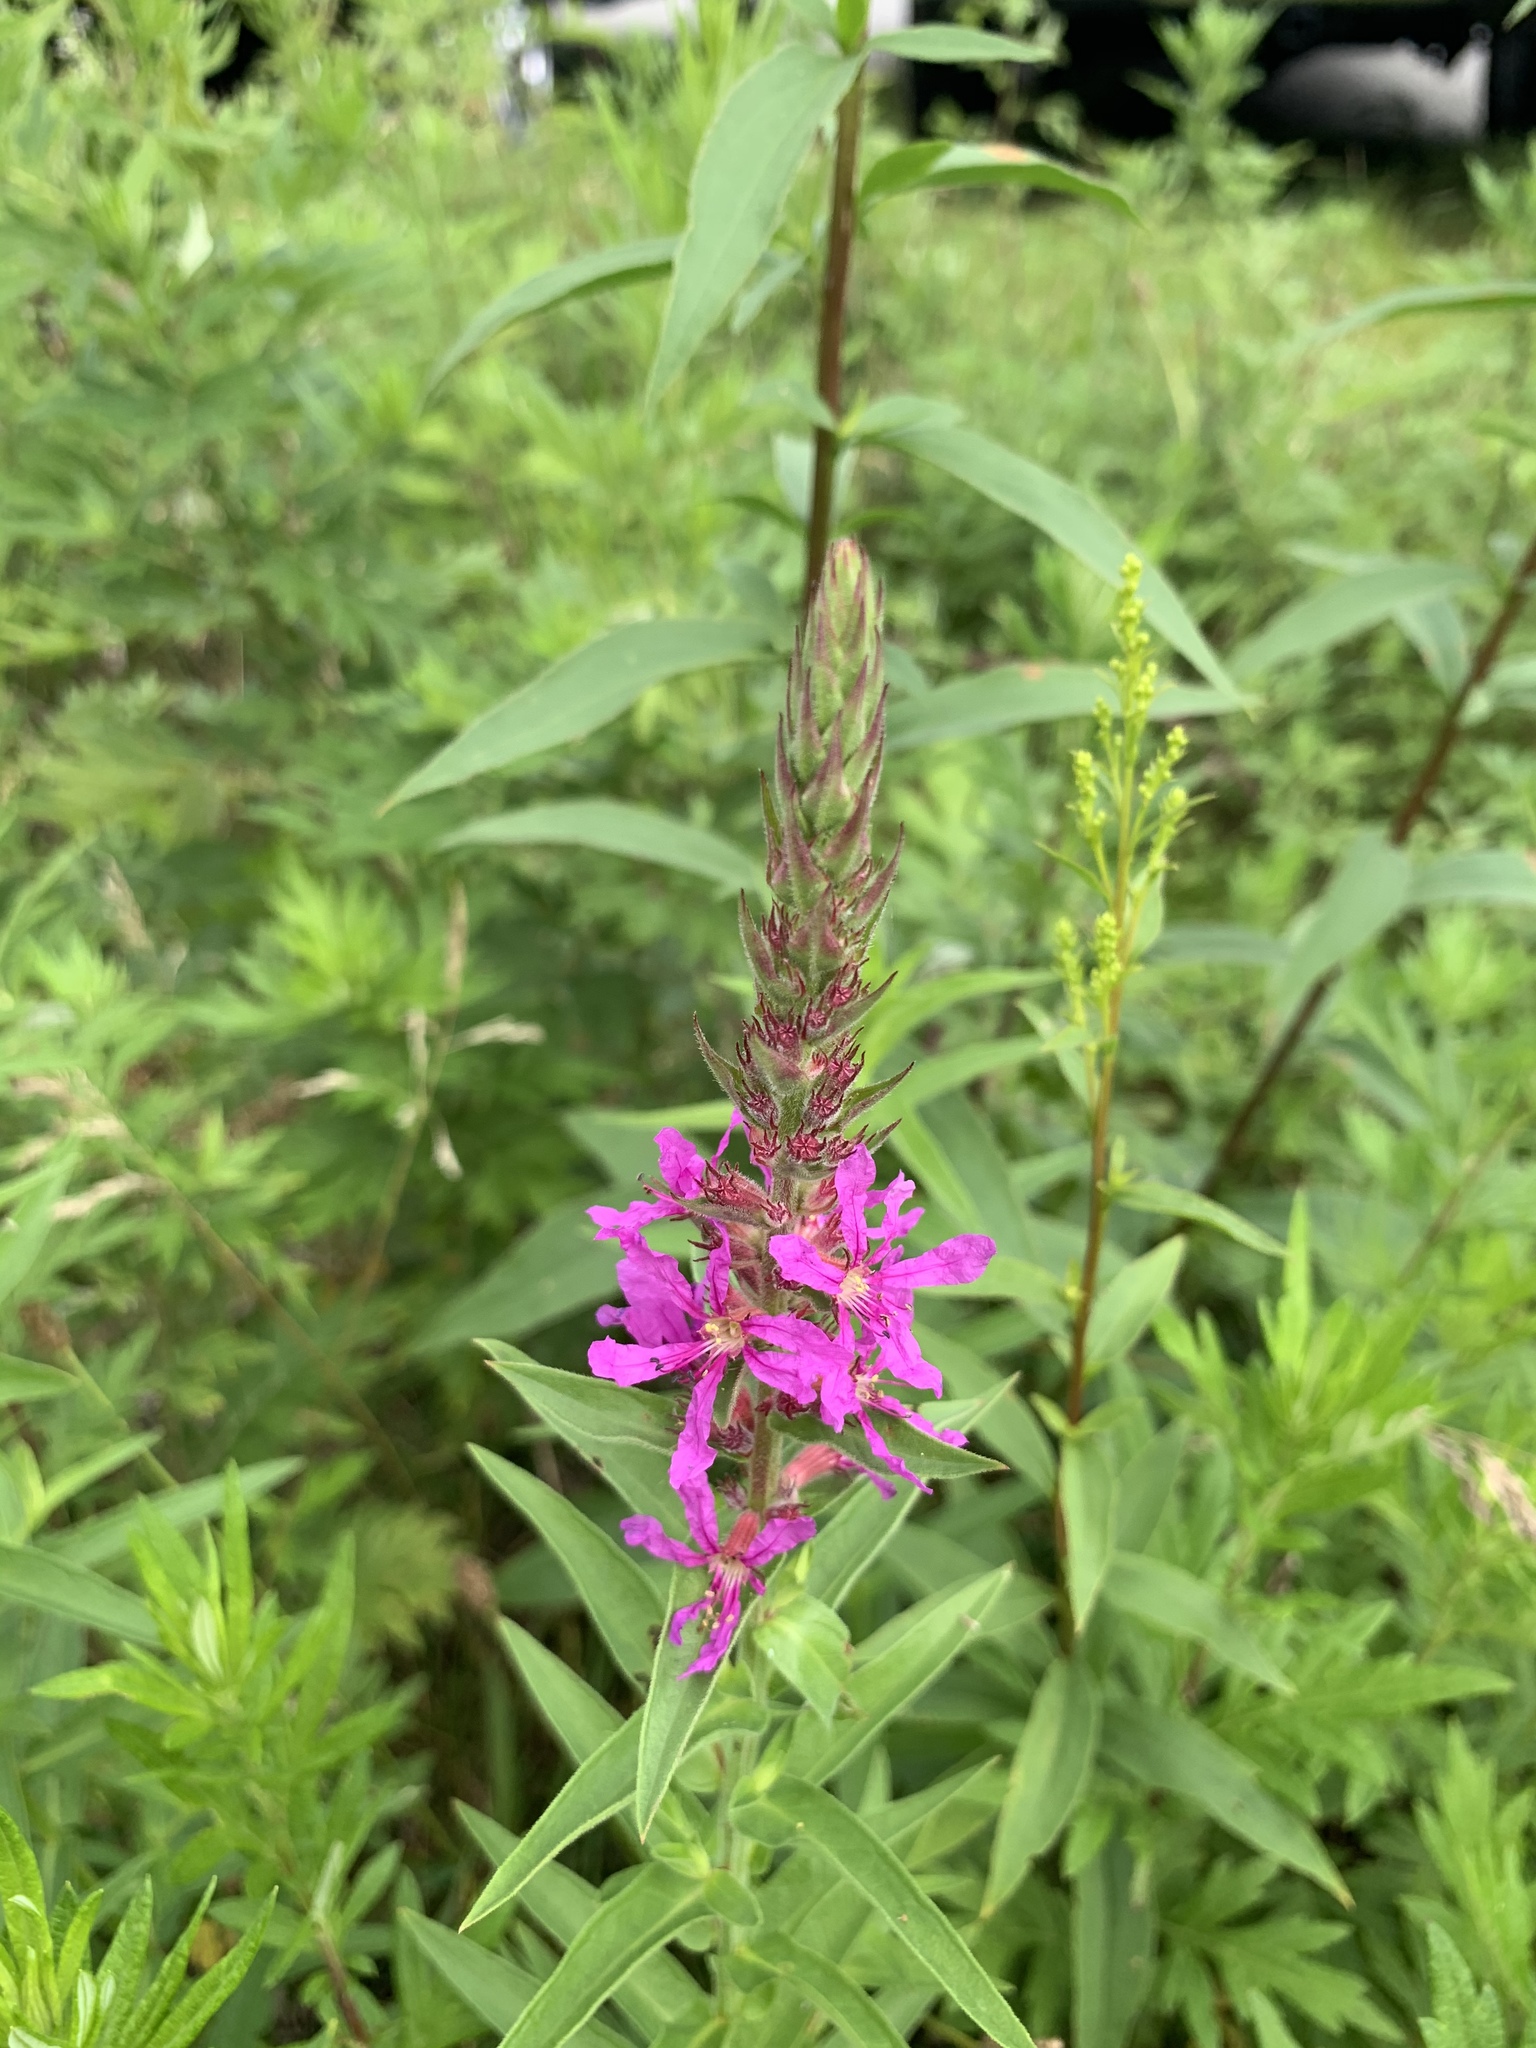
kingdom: Plantae
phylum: Tracheophyta
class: Magnoliopsida
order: Myrtales
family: Lythraceae
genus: Lythrum
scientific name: Lythrum salicaria
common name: Purple loosestrife
